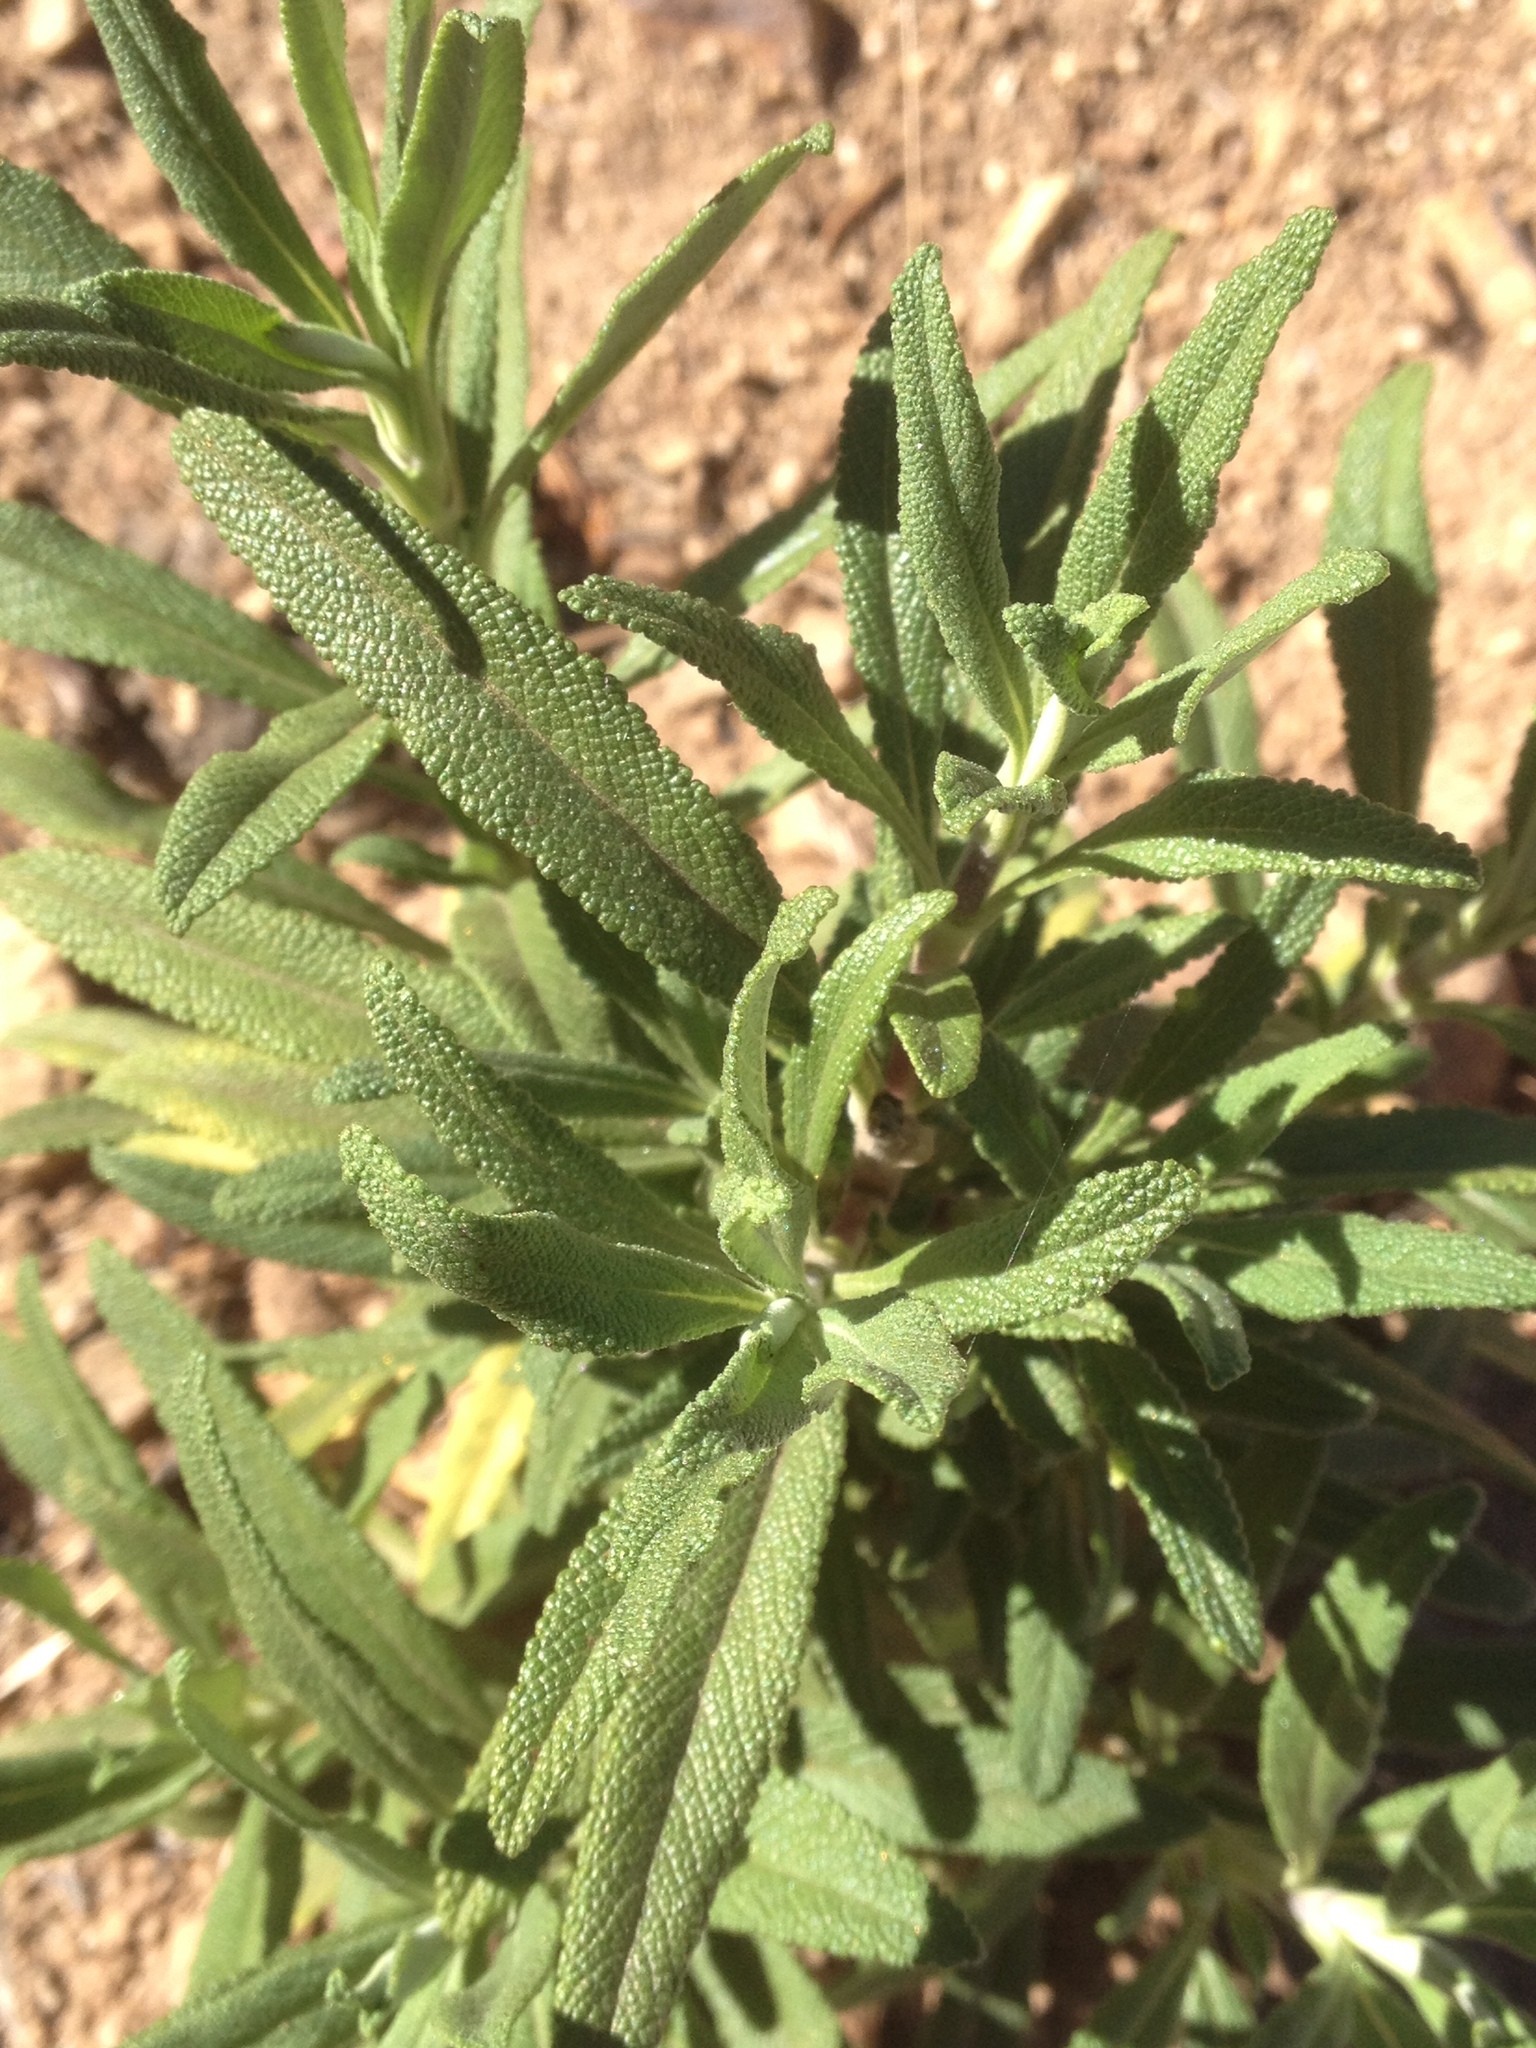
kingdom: Plantae
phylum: Tracheophyta
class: Magnoliopsida
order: Lamiales
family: Lamiaceae
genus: Salvia
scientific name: Salvia mellifera
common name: Black sage
